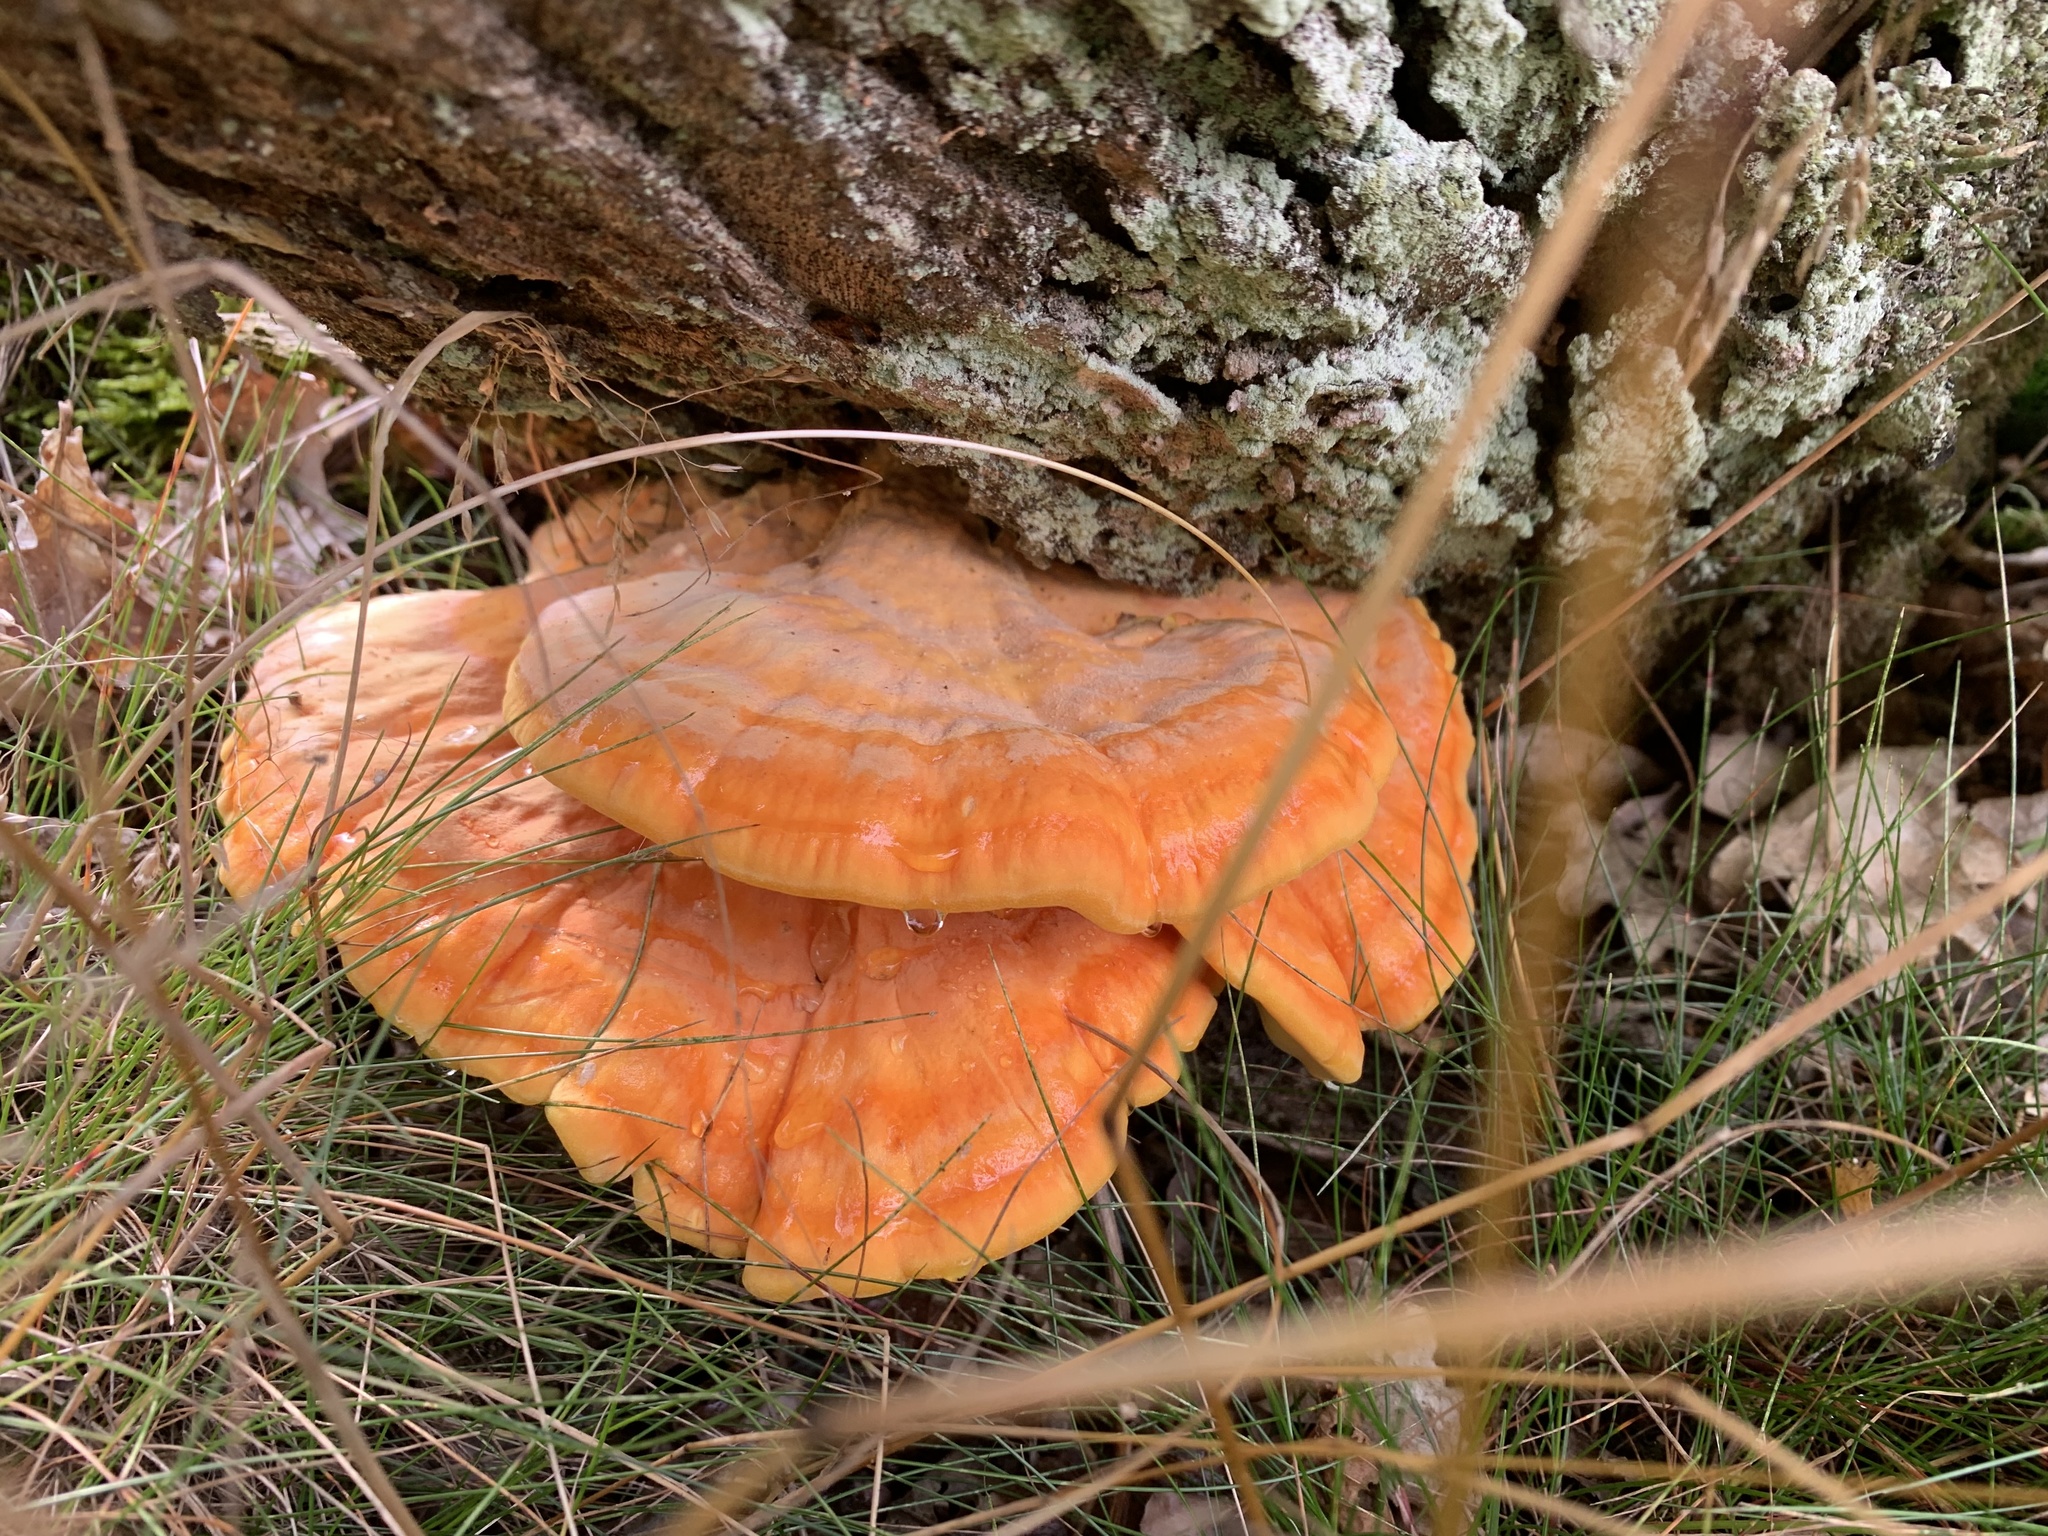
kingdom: Fungi
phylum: Basidiomycota
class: Agaricomycetes
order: Polyporales
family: Laetiporaceae
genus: Laetiporus
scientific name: Laetiporus sulphureus
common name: Chicken of the woods
